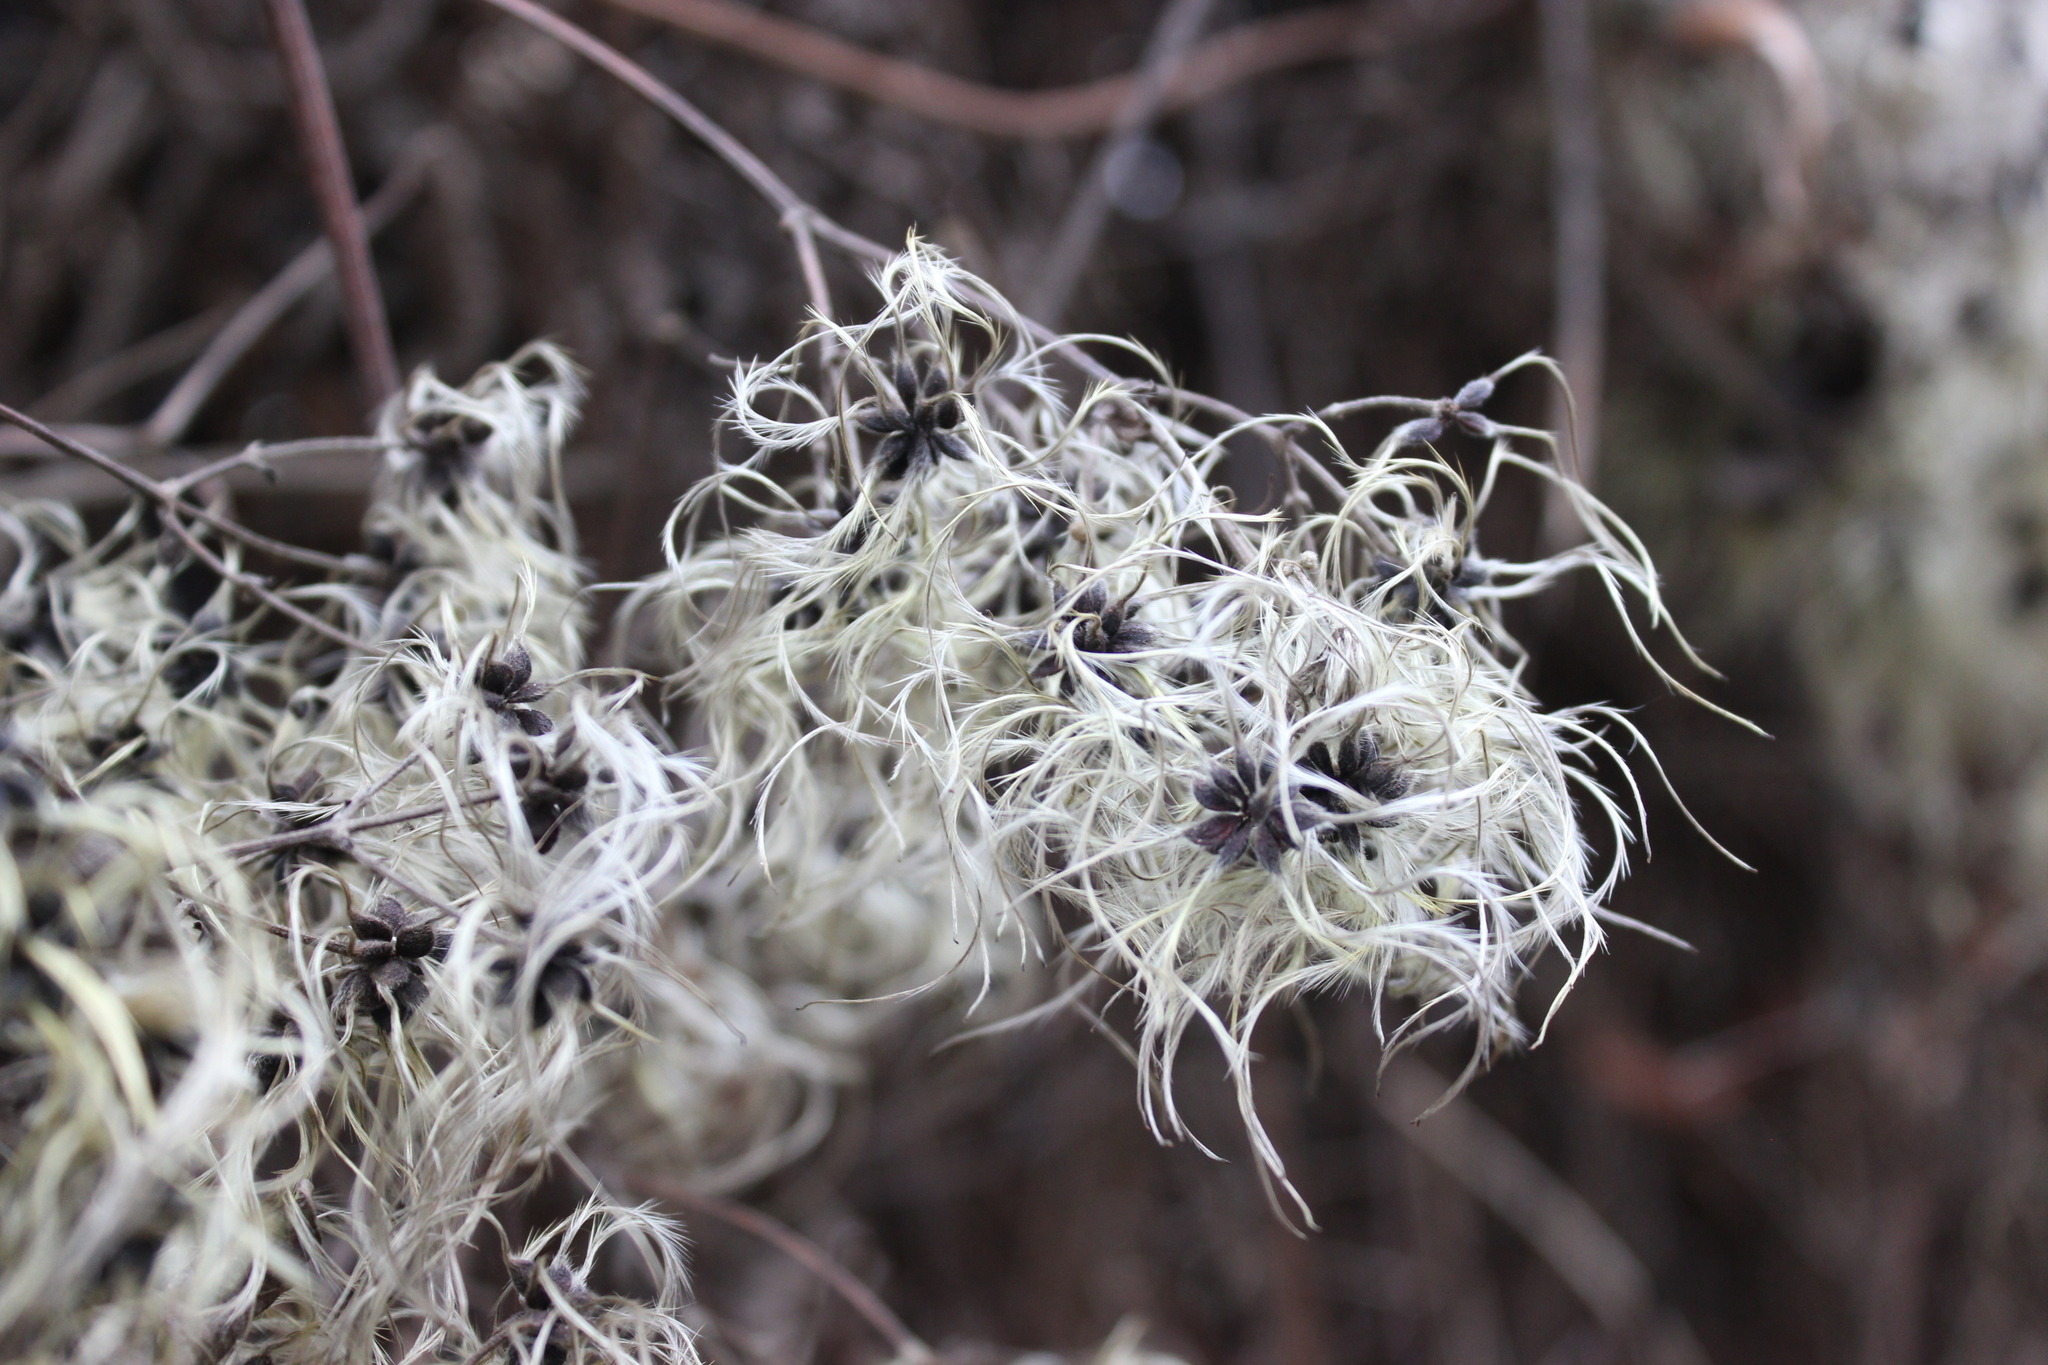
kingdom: Plantae
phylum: Tracheophyta
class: Magnoliopsida
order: Ranunculales
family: Ranunculaceae
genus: Clematis
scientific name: Clematis vitalba
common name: Evergreen clematis
